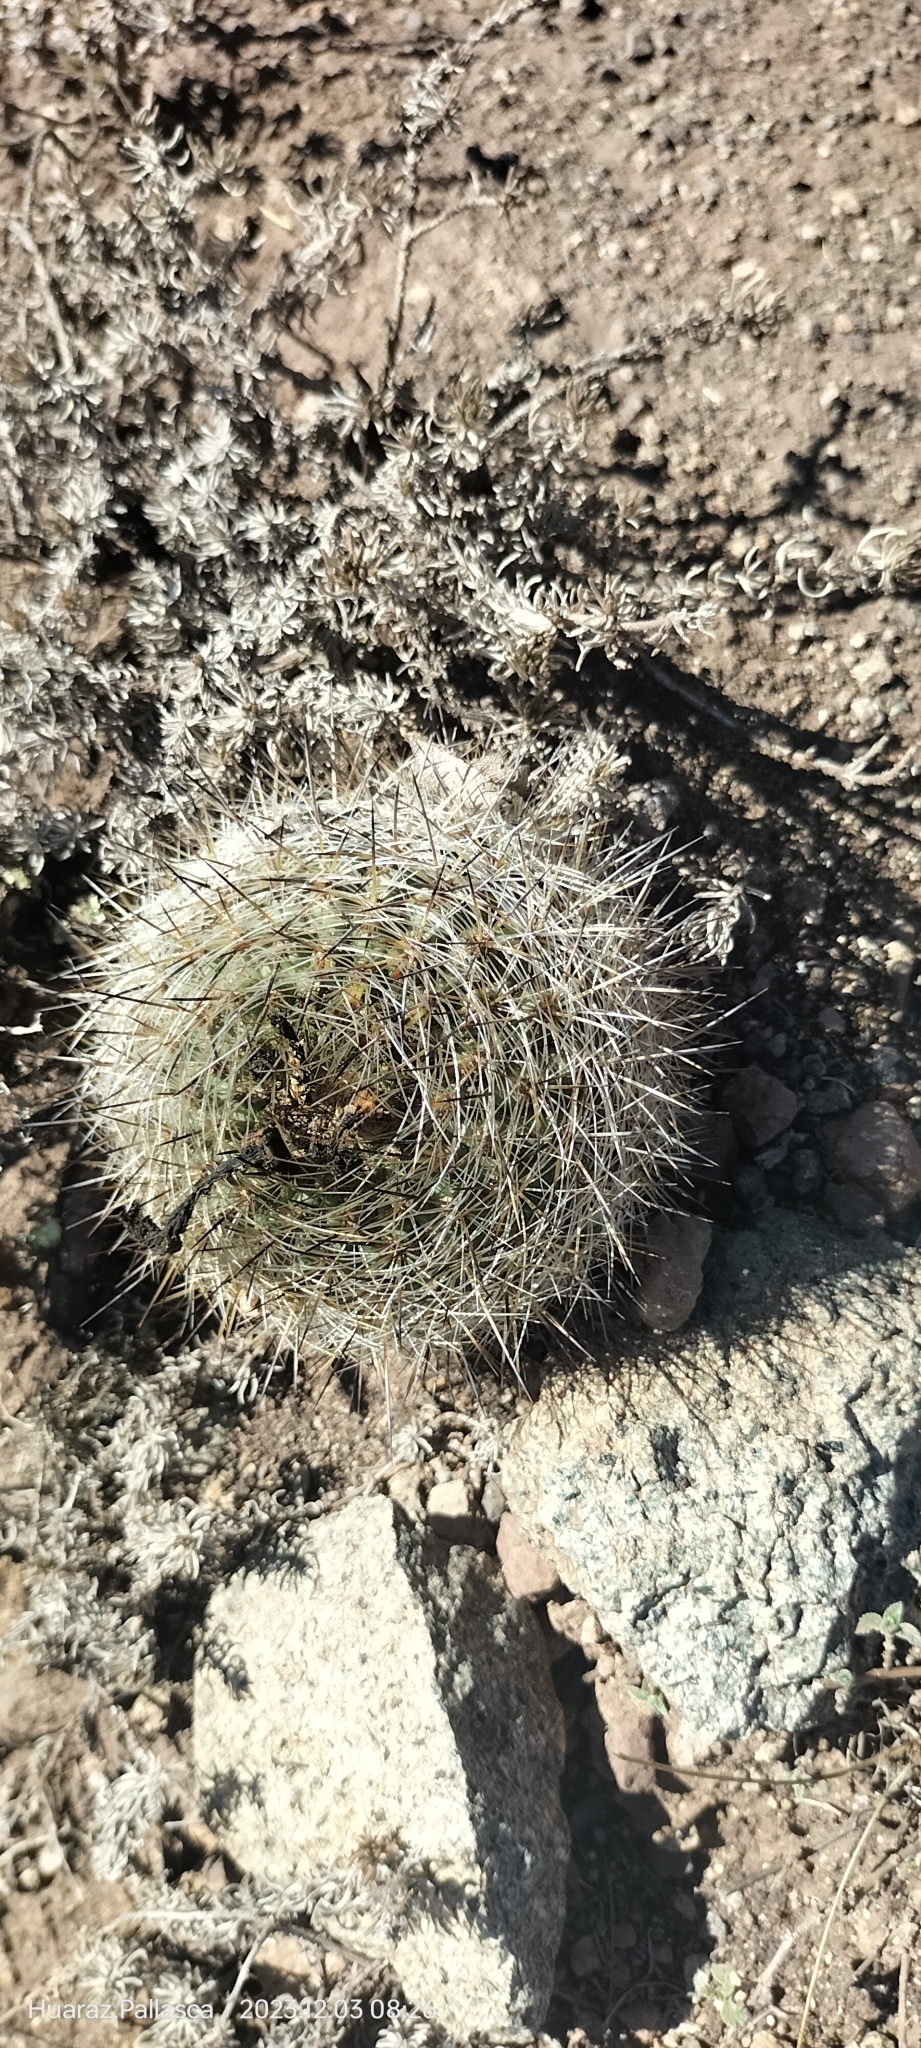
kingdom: Plantae
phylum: Tracheophyta
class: Magnoliopsida
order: Caryophyllales
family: Cactaceae
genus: Matucana
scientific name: Matucana haynii
